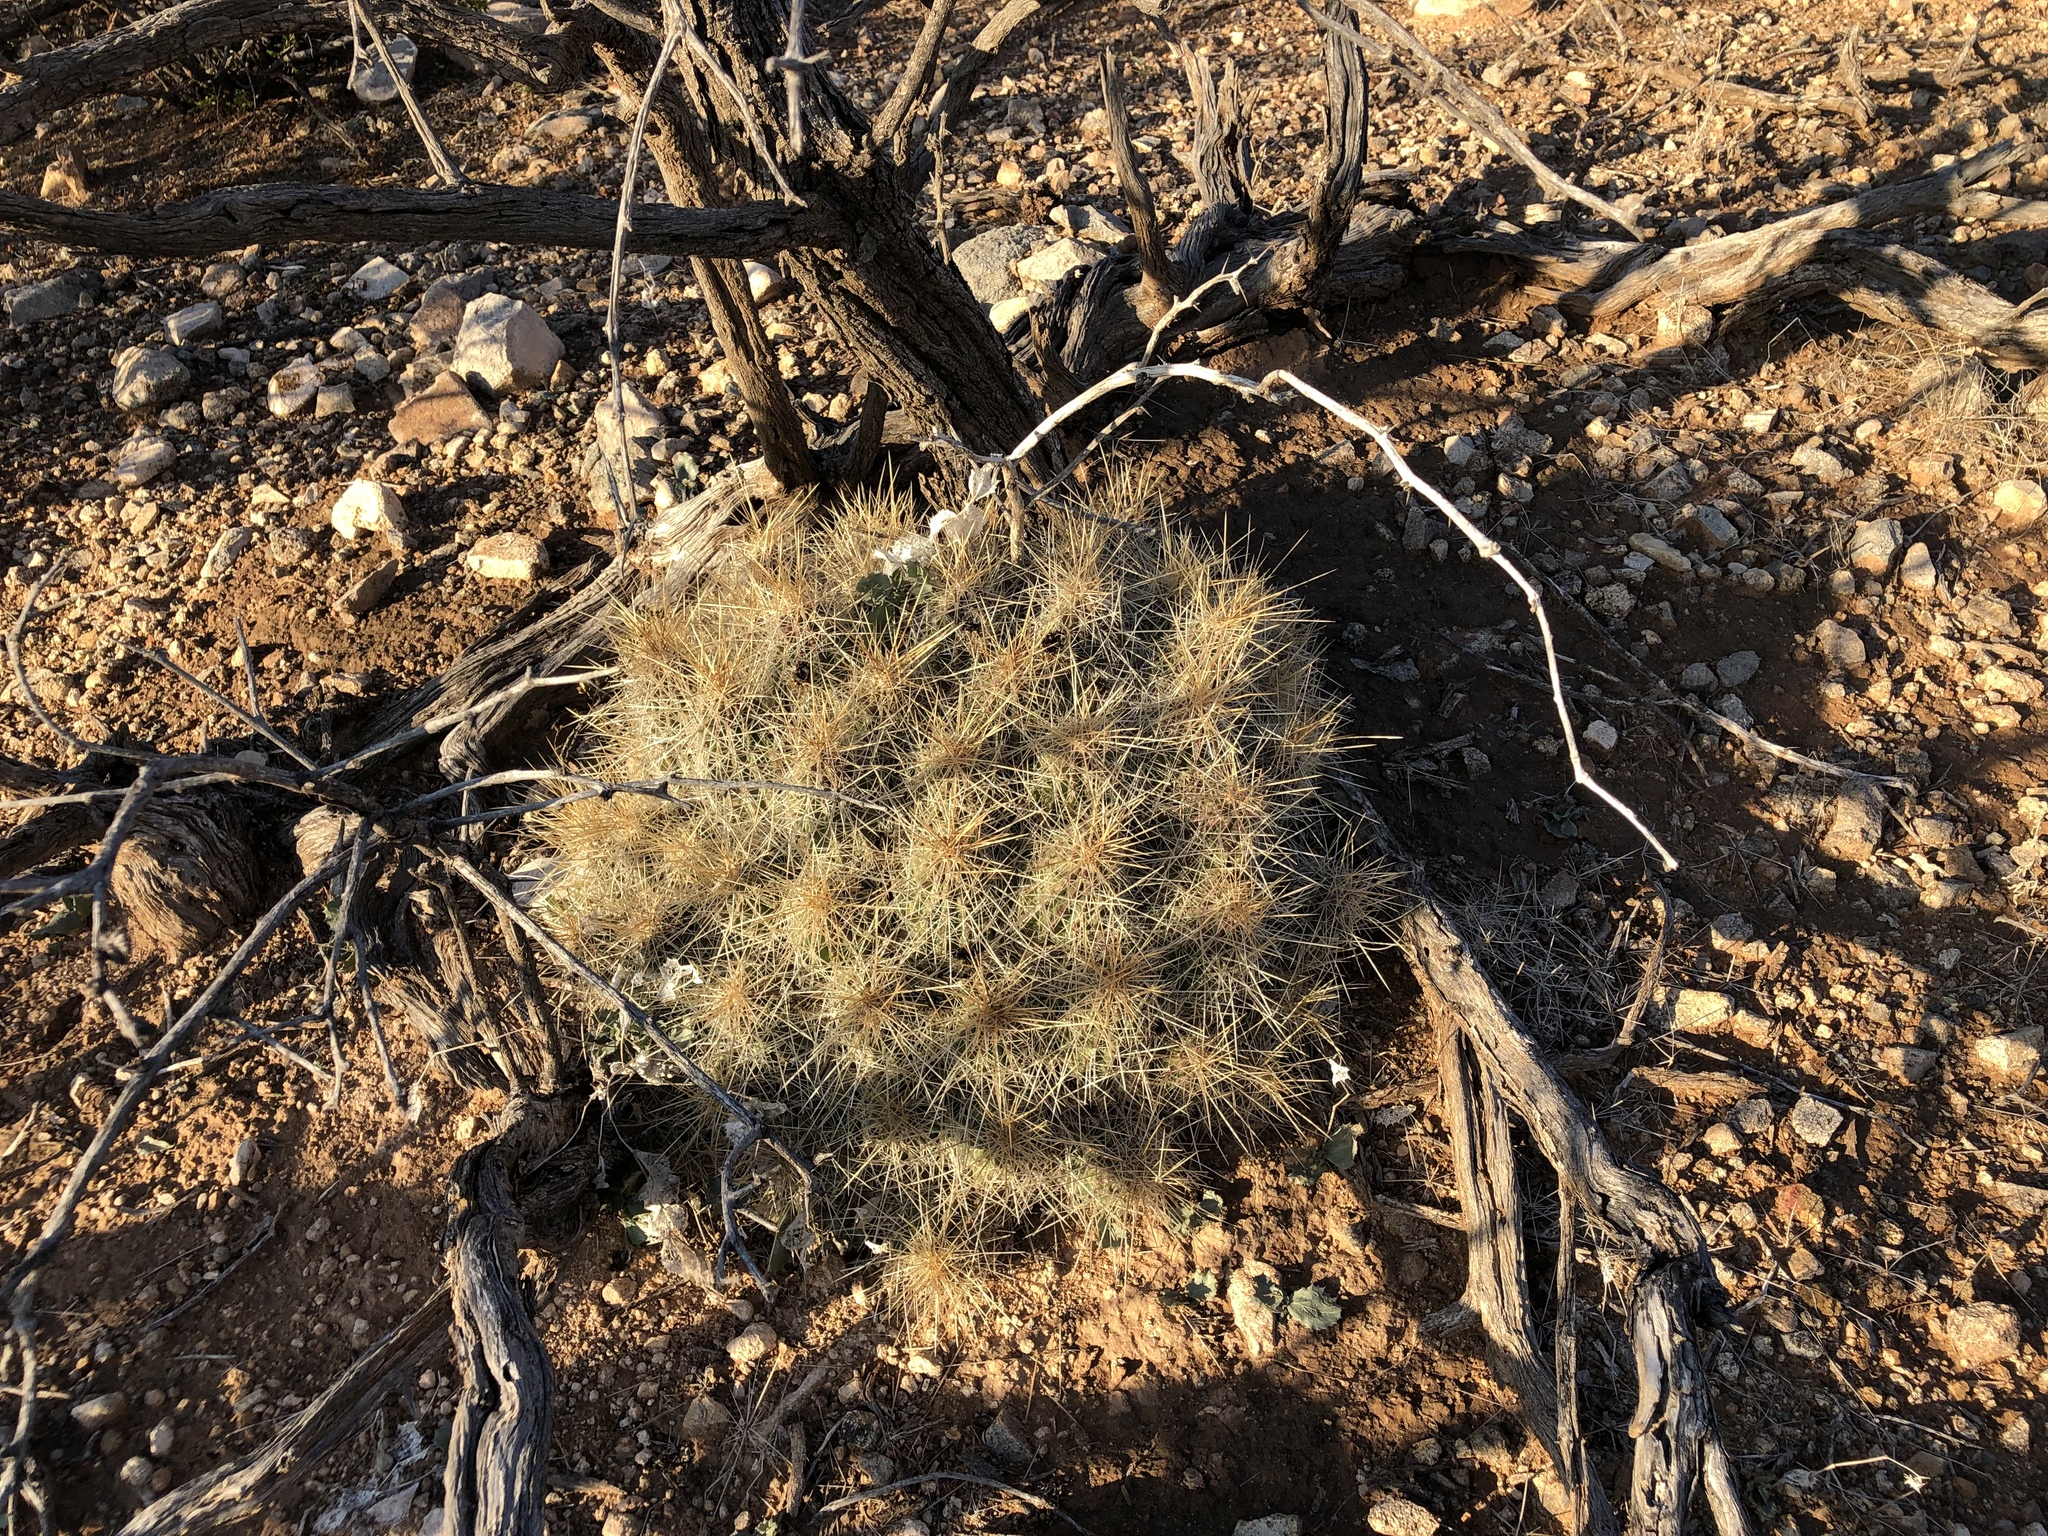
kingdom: Plantae
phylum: Tracheophyta
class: Magnoliopsida
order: Caryophyllales
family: Cactaceae
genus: Echinocereus
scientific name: Echinocereus stramineus
